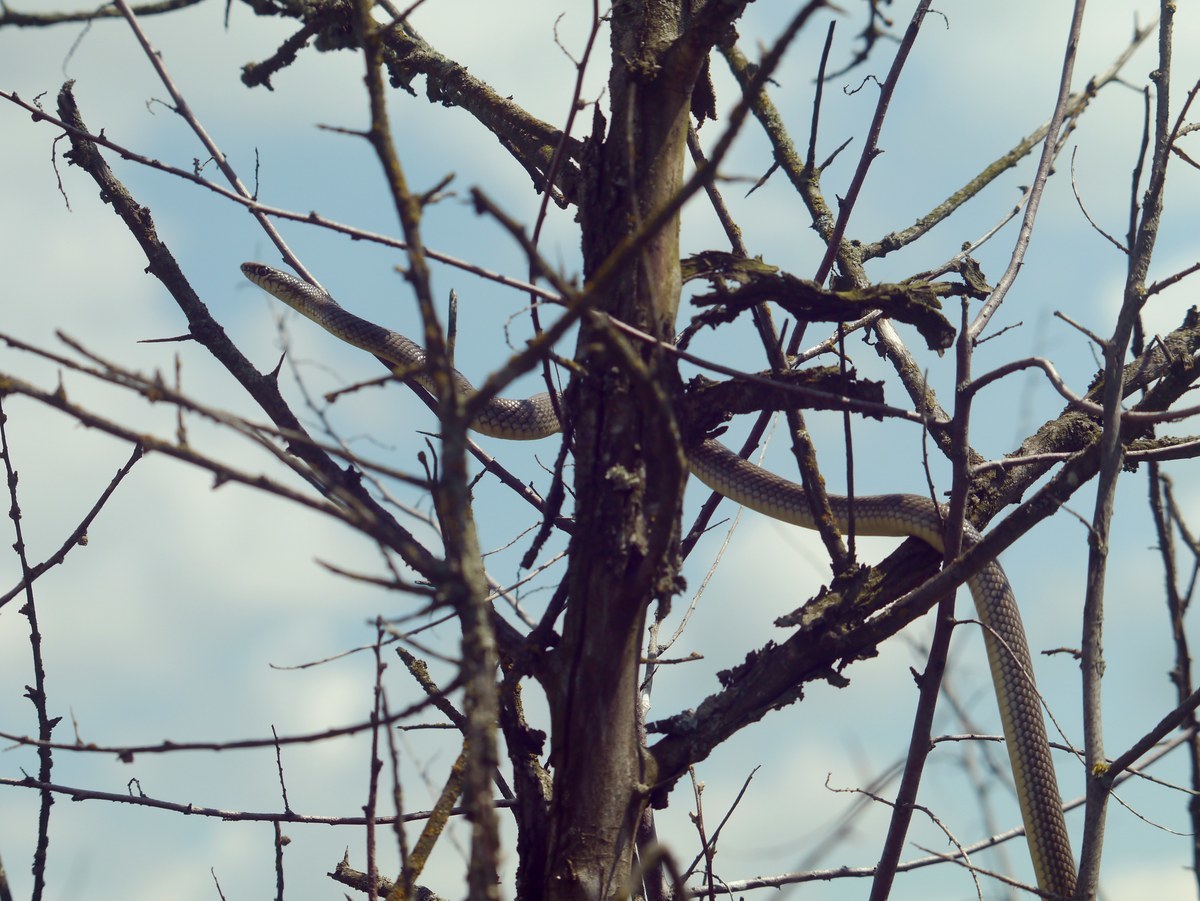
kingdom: Animalia
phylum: Chordata
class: Squamata
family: Colubridae
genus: Dolichophis
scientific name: Dolichophis caspius
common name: Large whip snake
